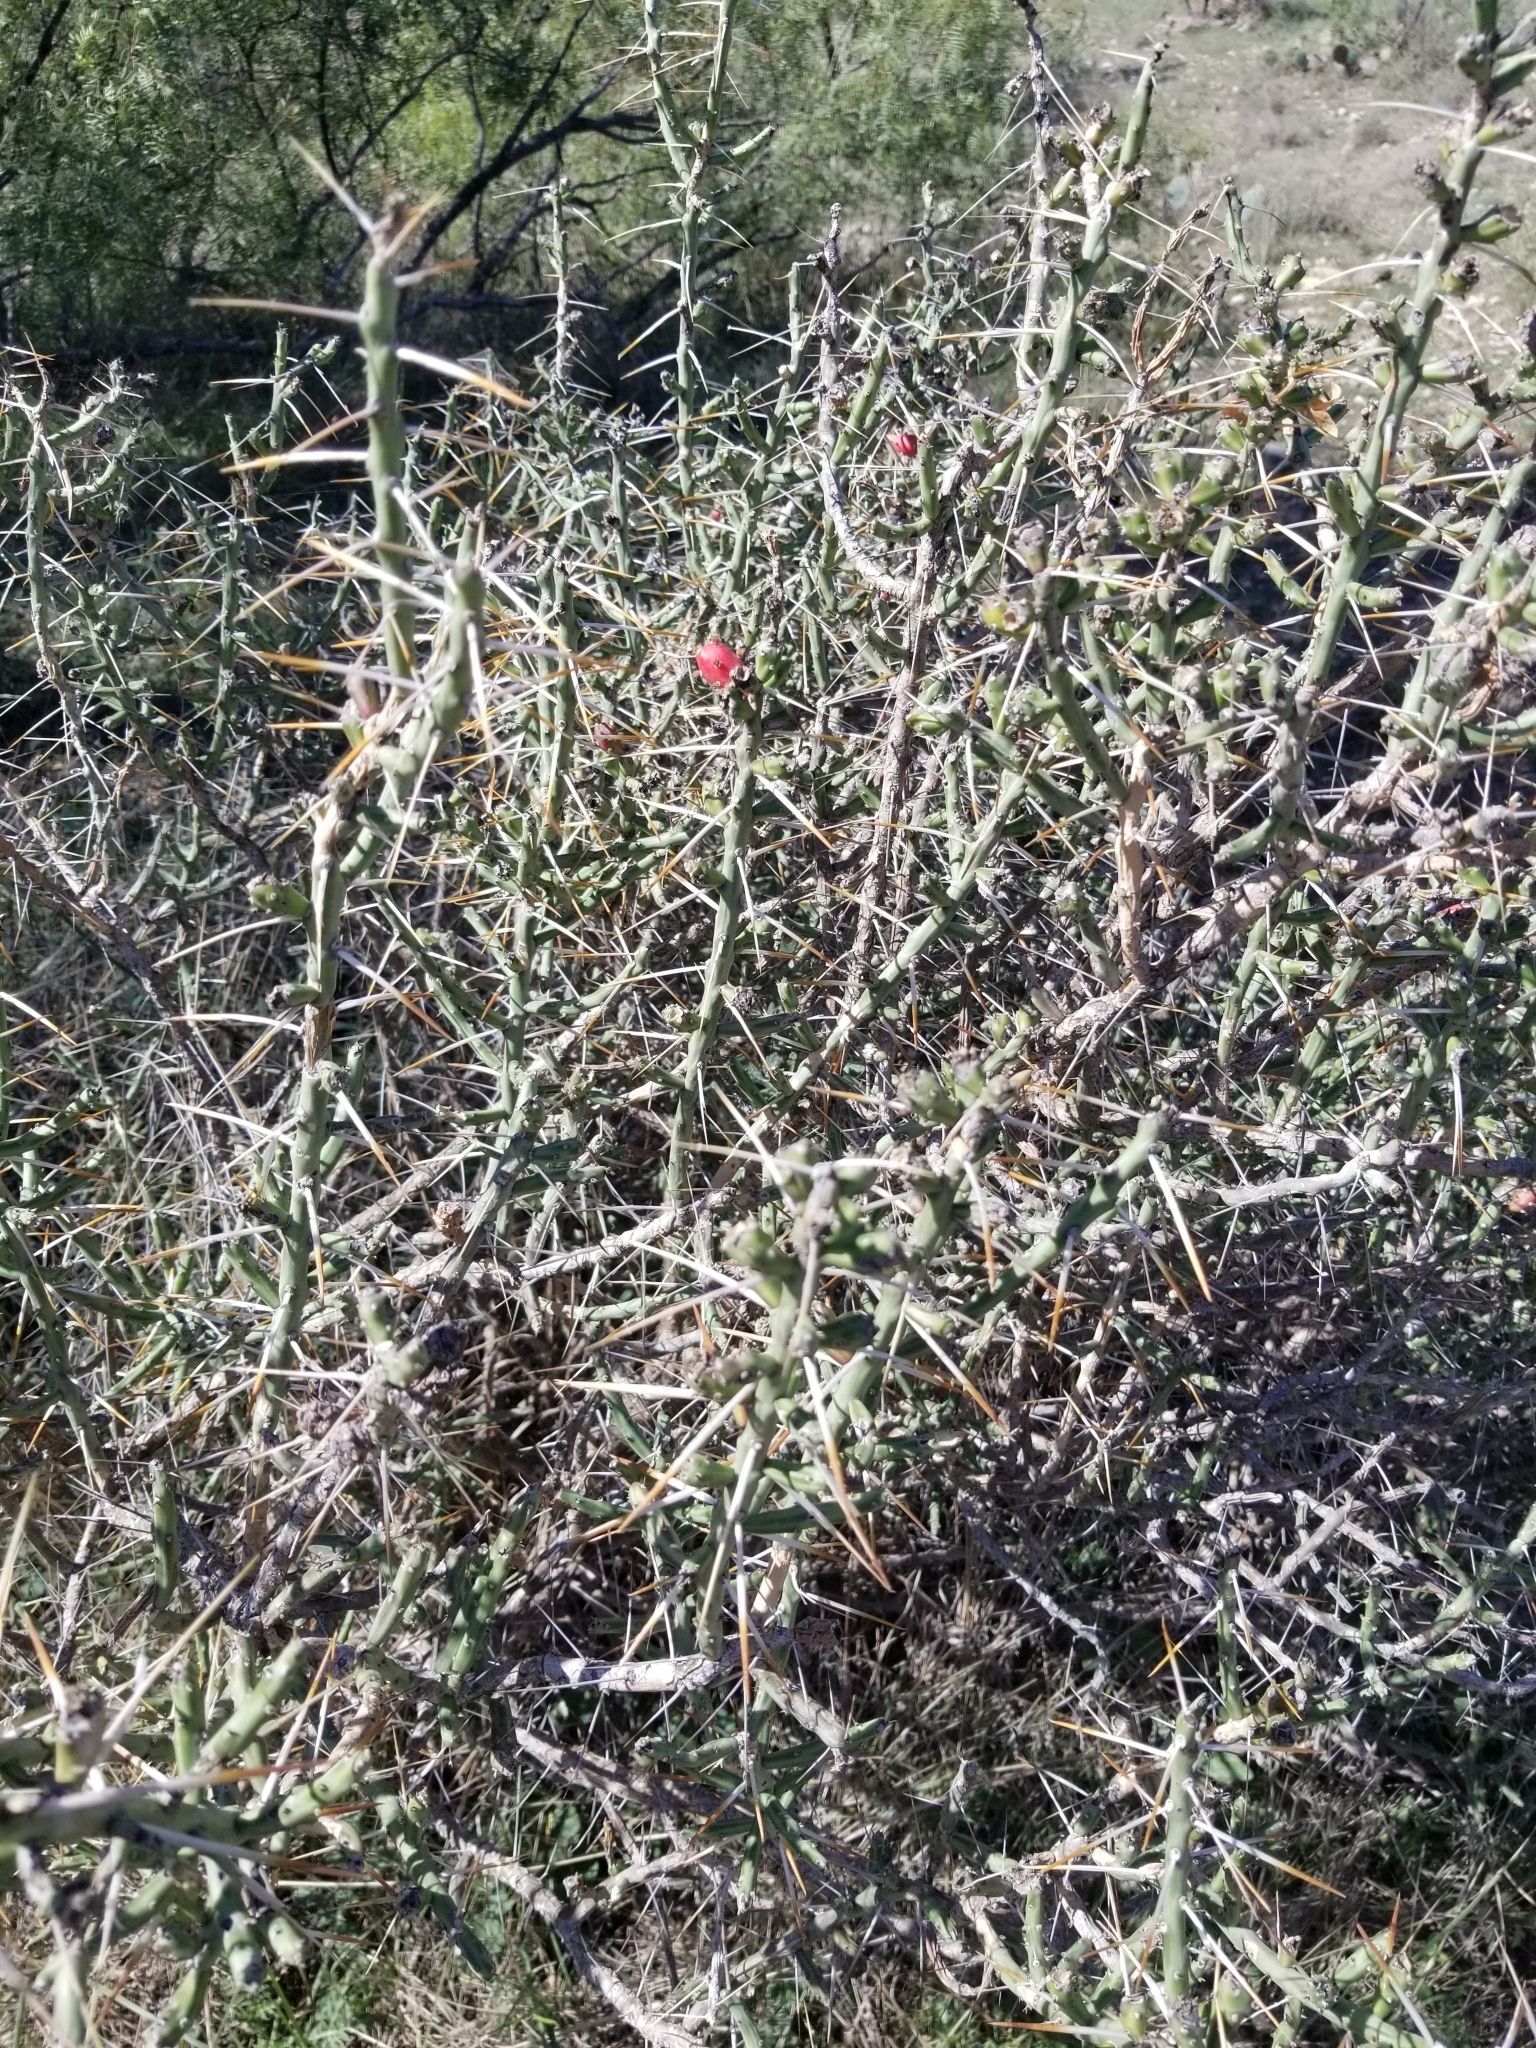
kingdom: Plantae
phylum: Tracheophyta
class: Magnoliopsida
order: Caryophyllales
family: Cactaceae
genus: Cylindropuntia
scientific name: Cylindropuntia leptocaulis
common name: Christmas cactus
